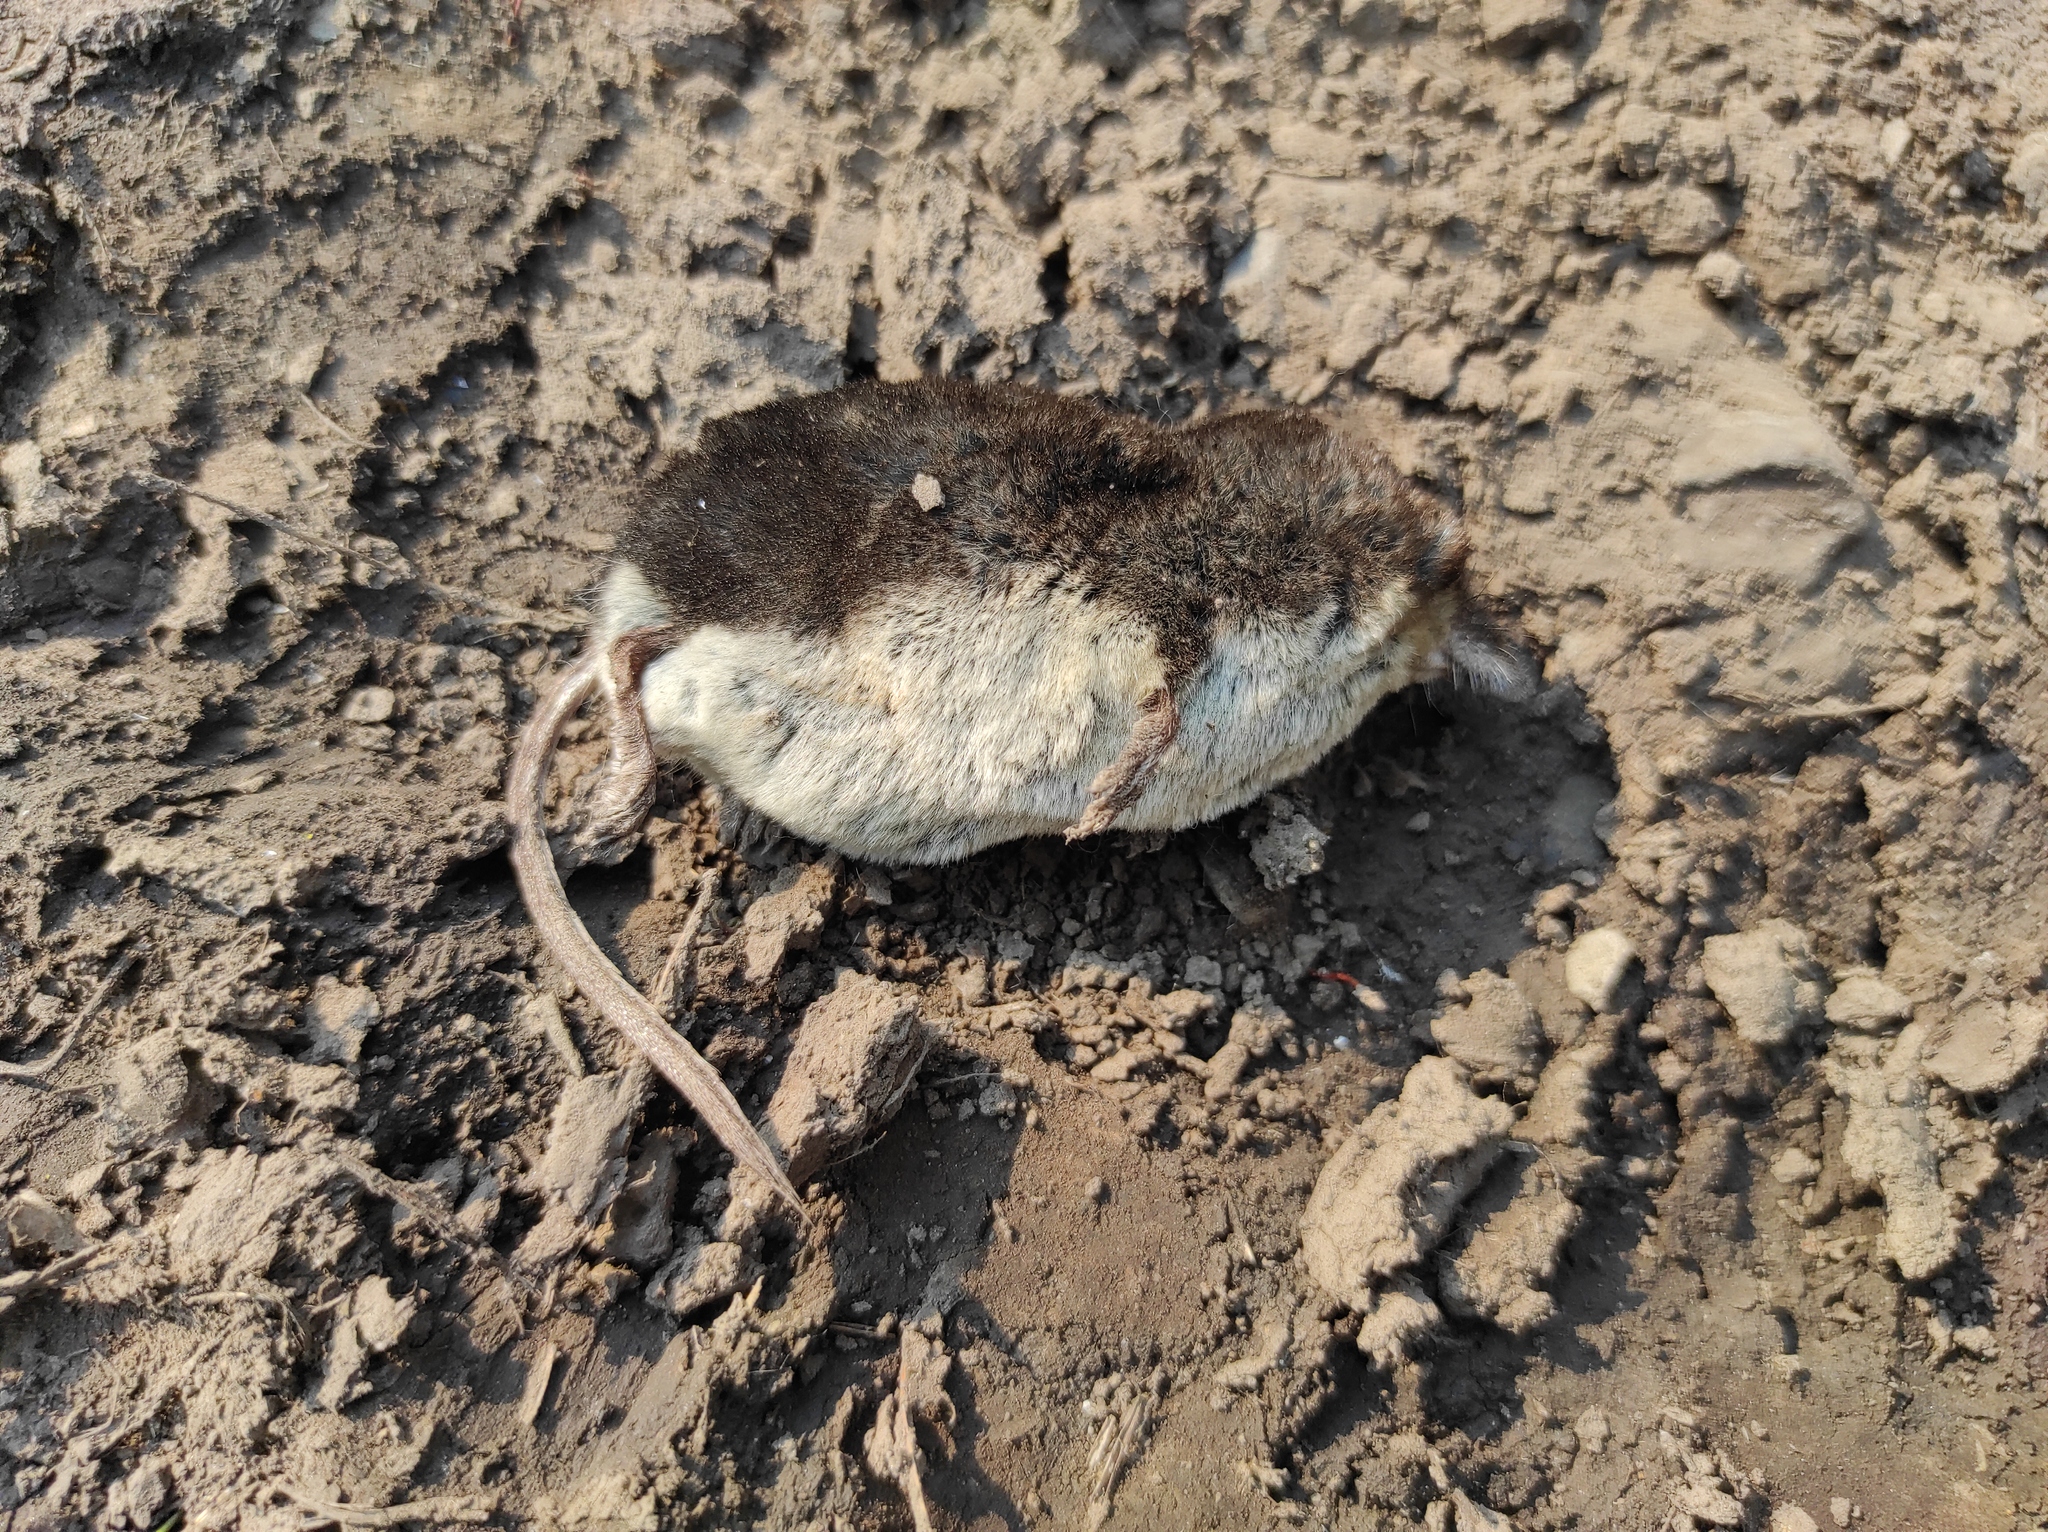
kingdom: Animalia
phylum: Chordata
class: Mammalia
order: Soricomorpha
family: Soricidae
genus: Neomys
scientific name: Neomys fodiens
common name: Eurasian water shrew
